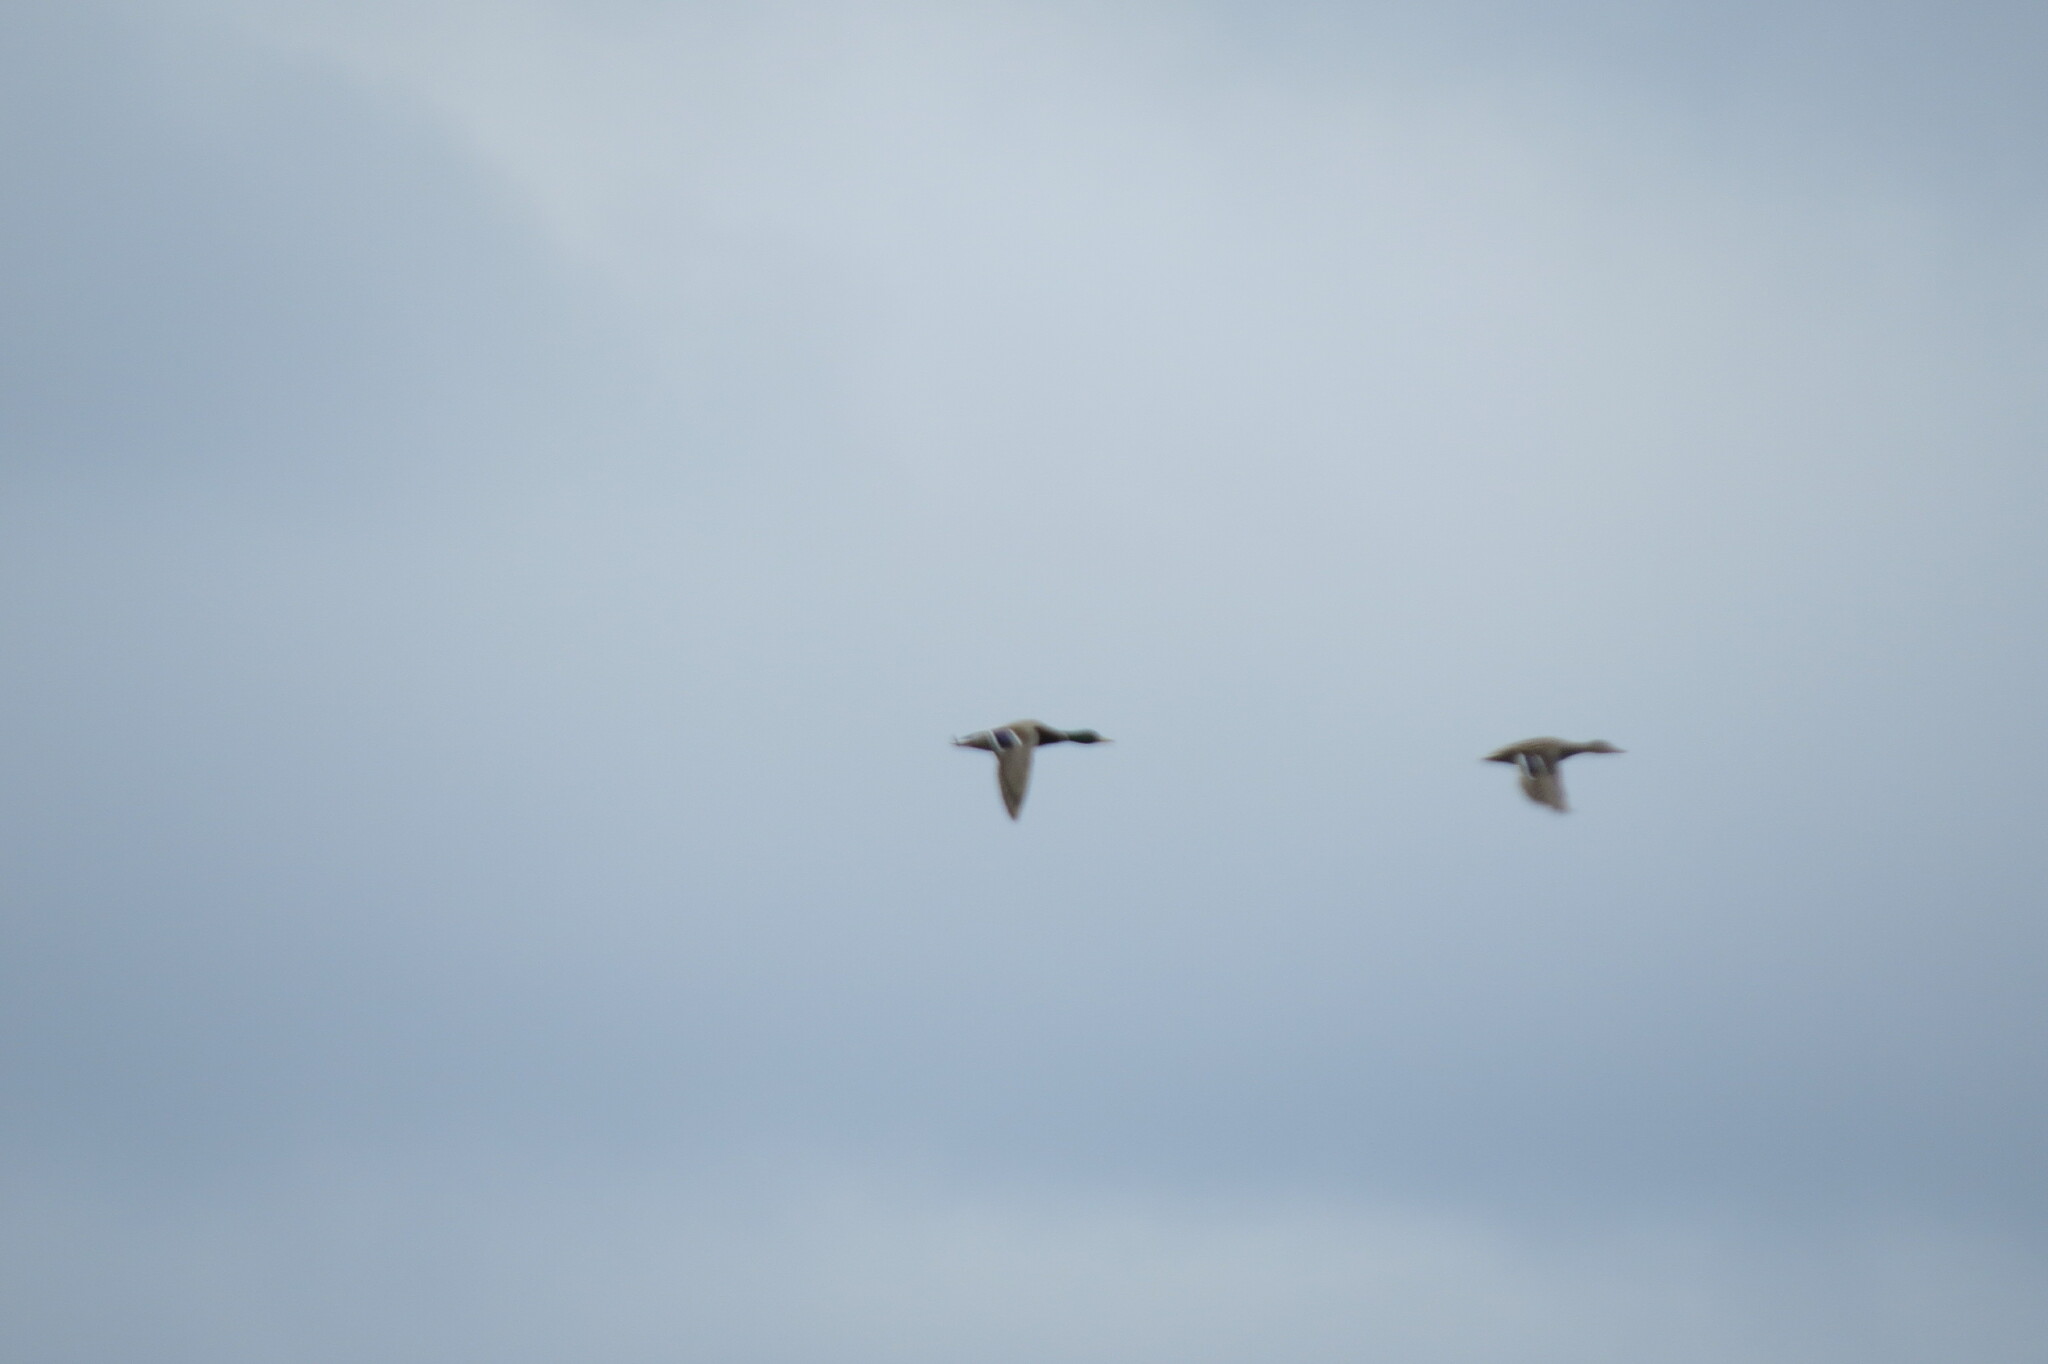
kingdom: Animalia
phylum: Chordata
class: Aves
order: Anseriformes
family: Anatidae
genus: Anas
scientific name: Anas platyrhynchos
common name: Mallard
